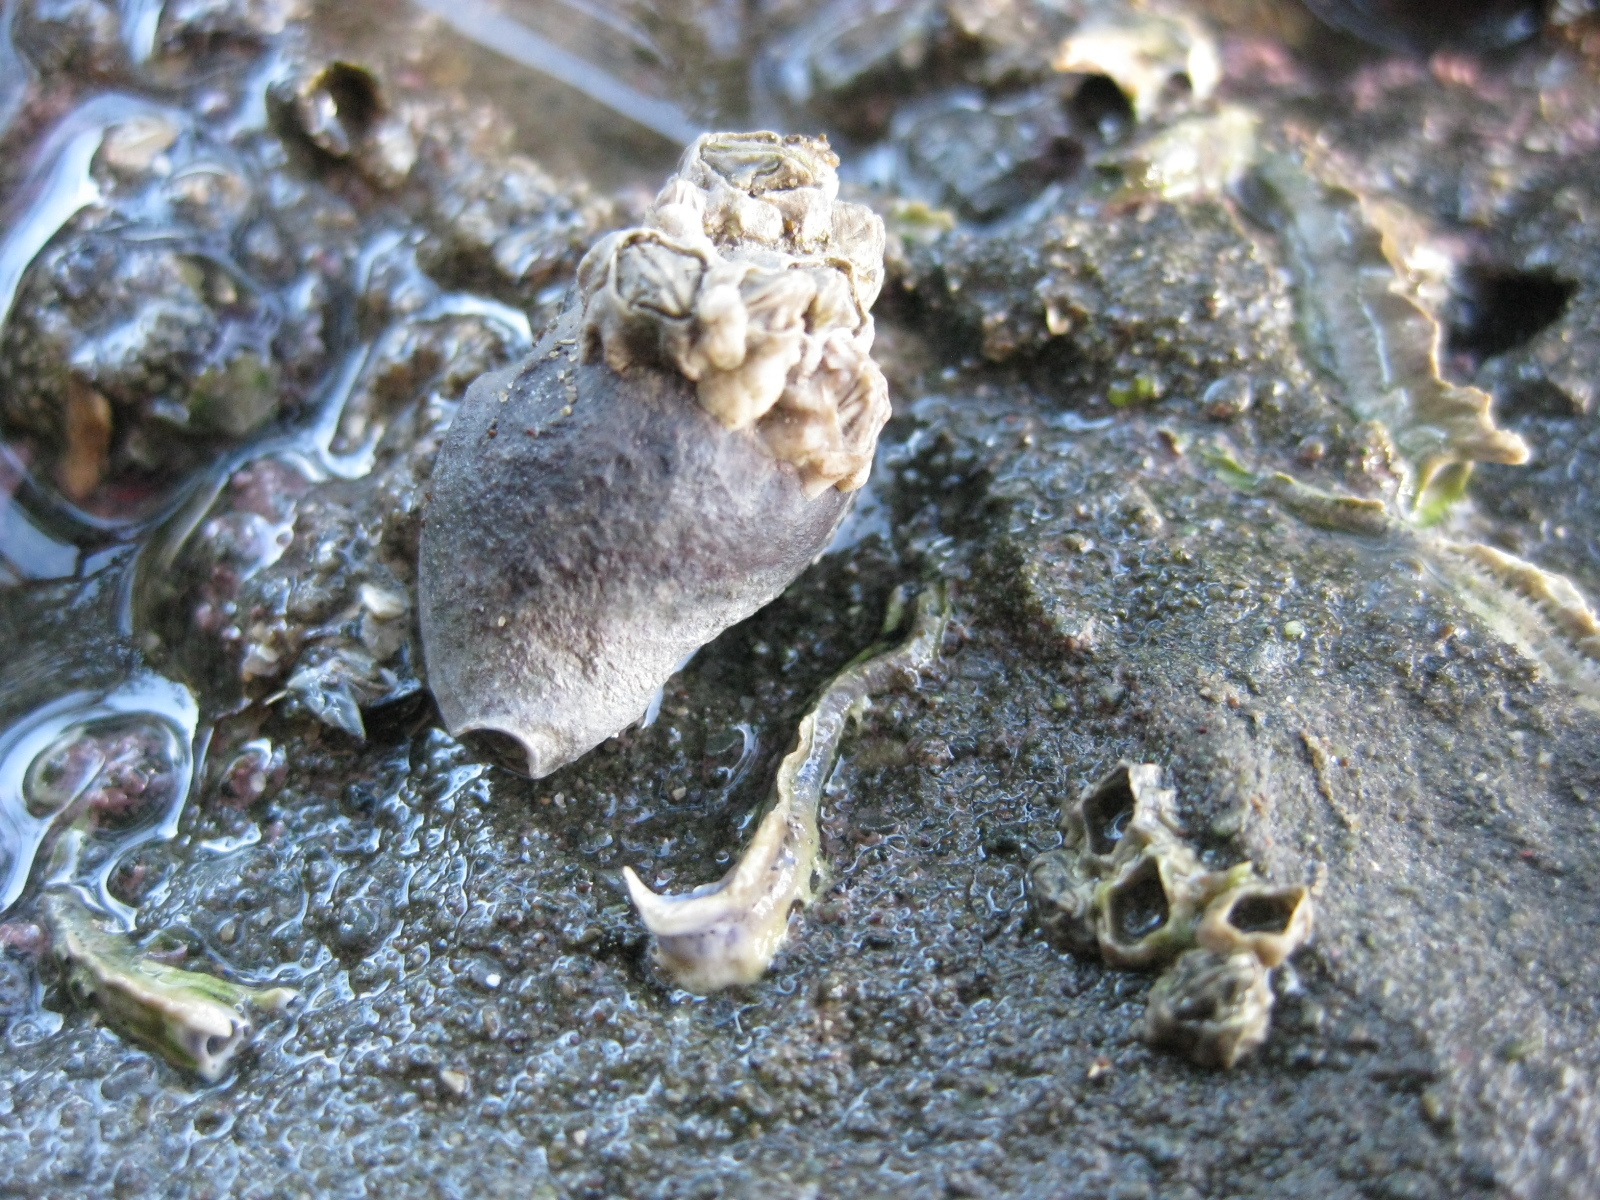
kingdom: Animalia
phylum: Mollusca
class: Gastropoda
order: Neogastropoda
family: Cominellidae
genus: Cominella
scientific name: Cominella glandiformis
